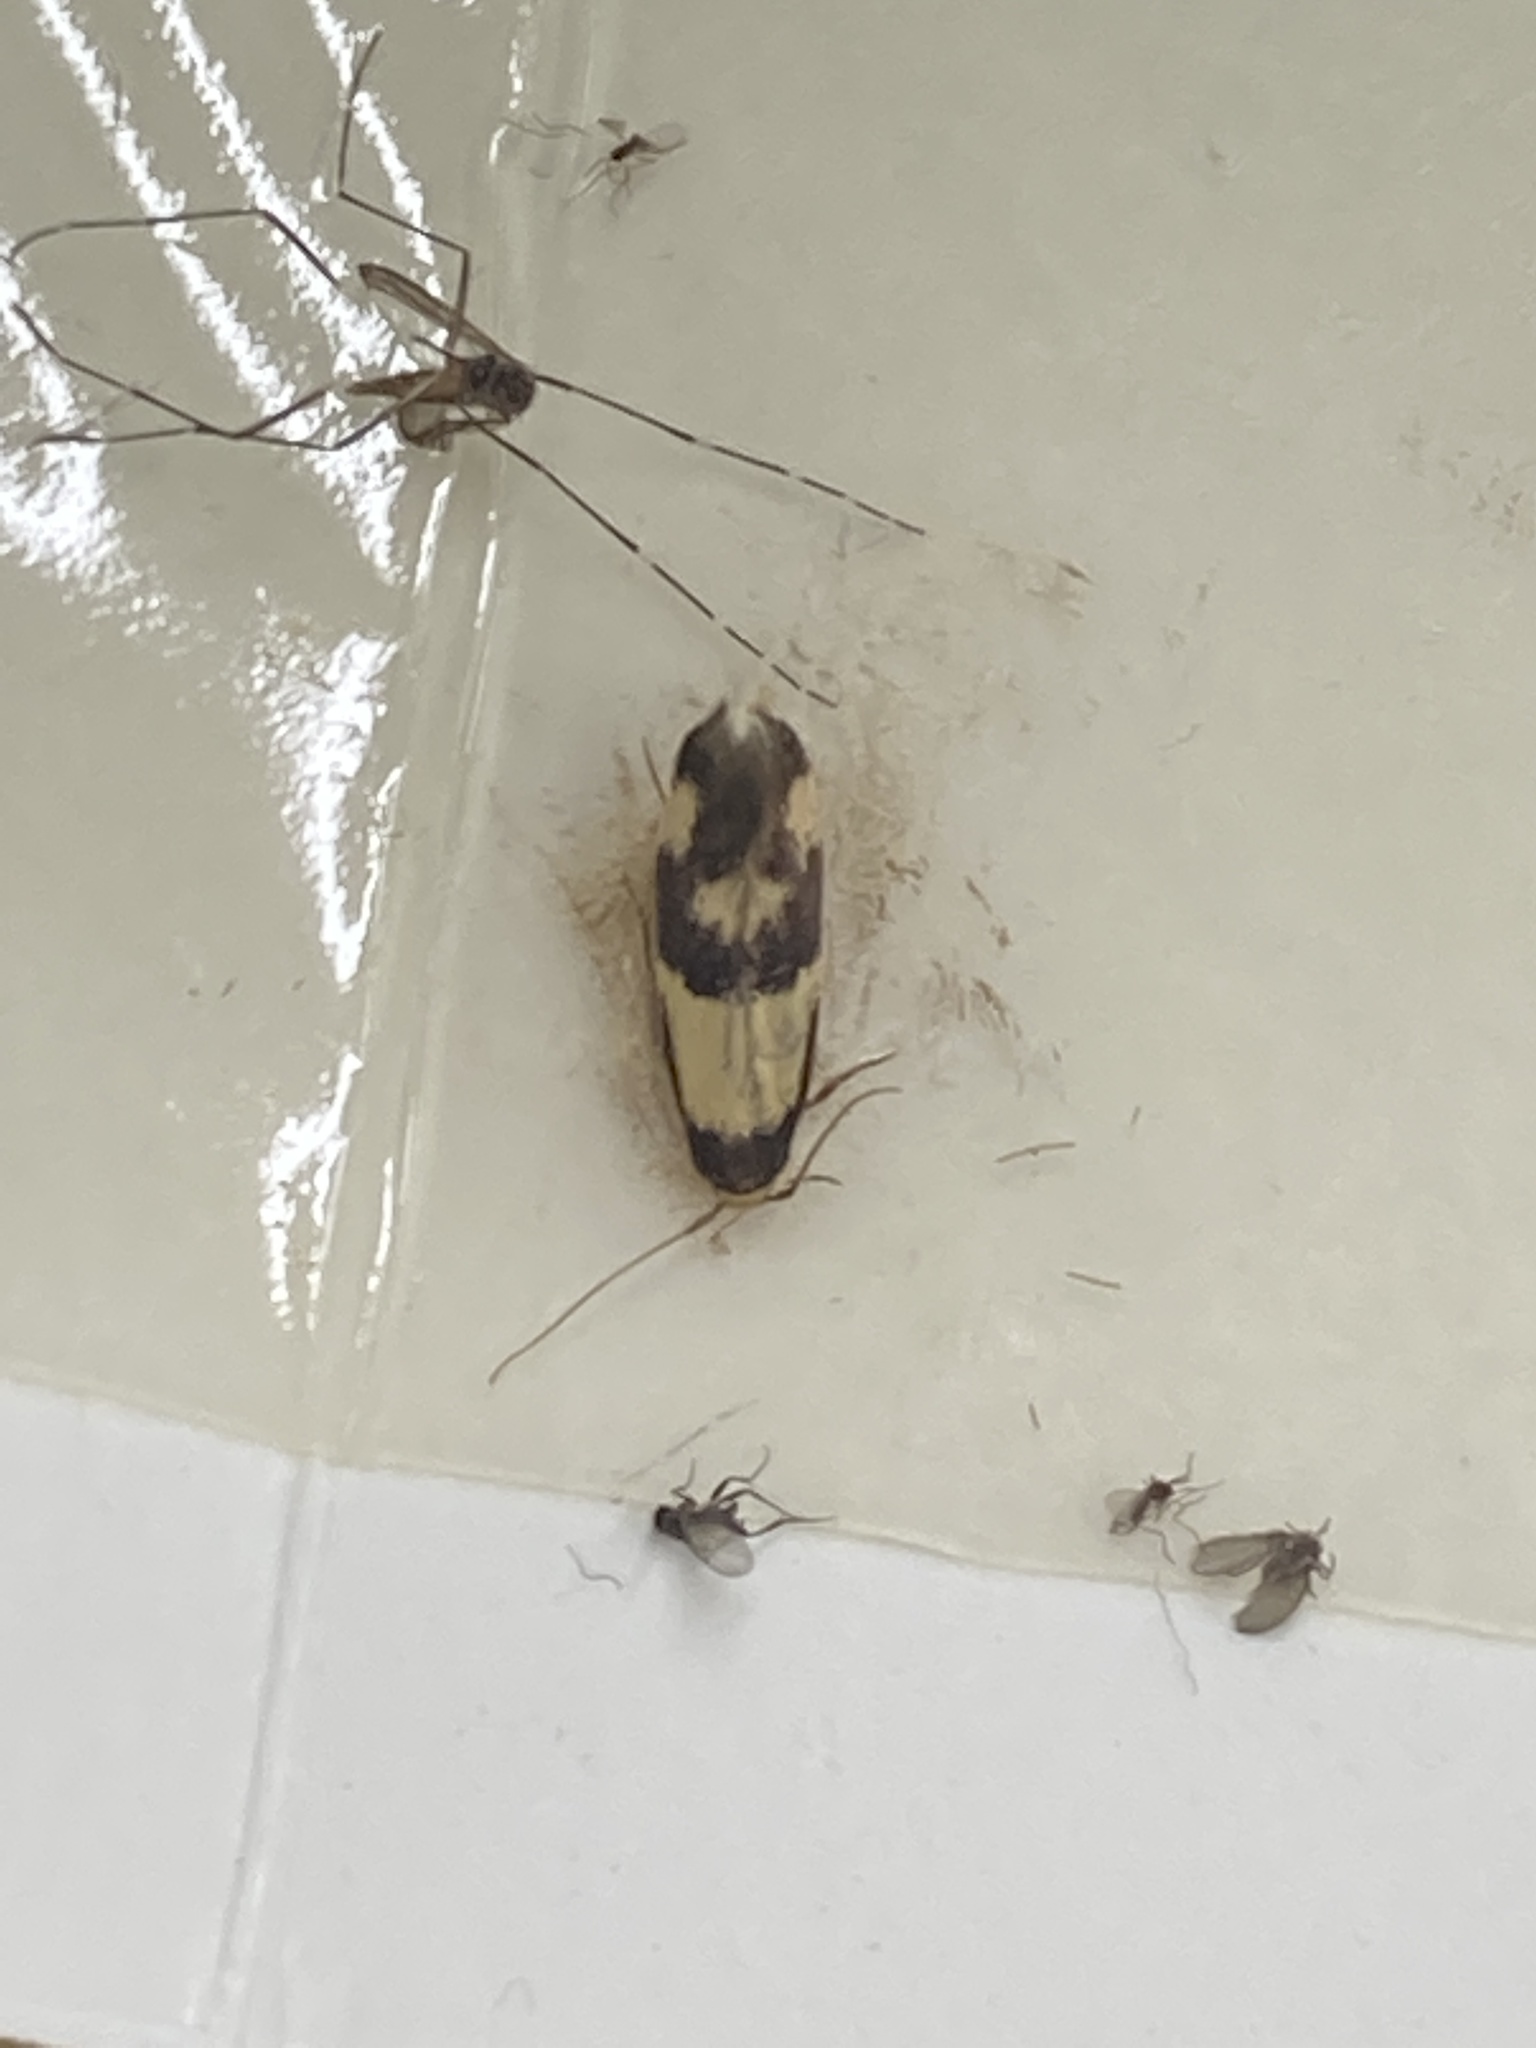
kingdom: Animalia
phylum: Arthropoda
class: Insecta
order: Lepidoptera
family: Tineidae
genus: Opogona
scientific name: Opogona comptella
